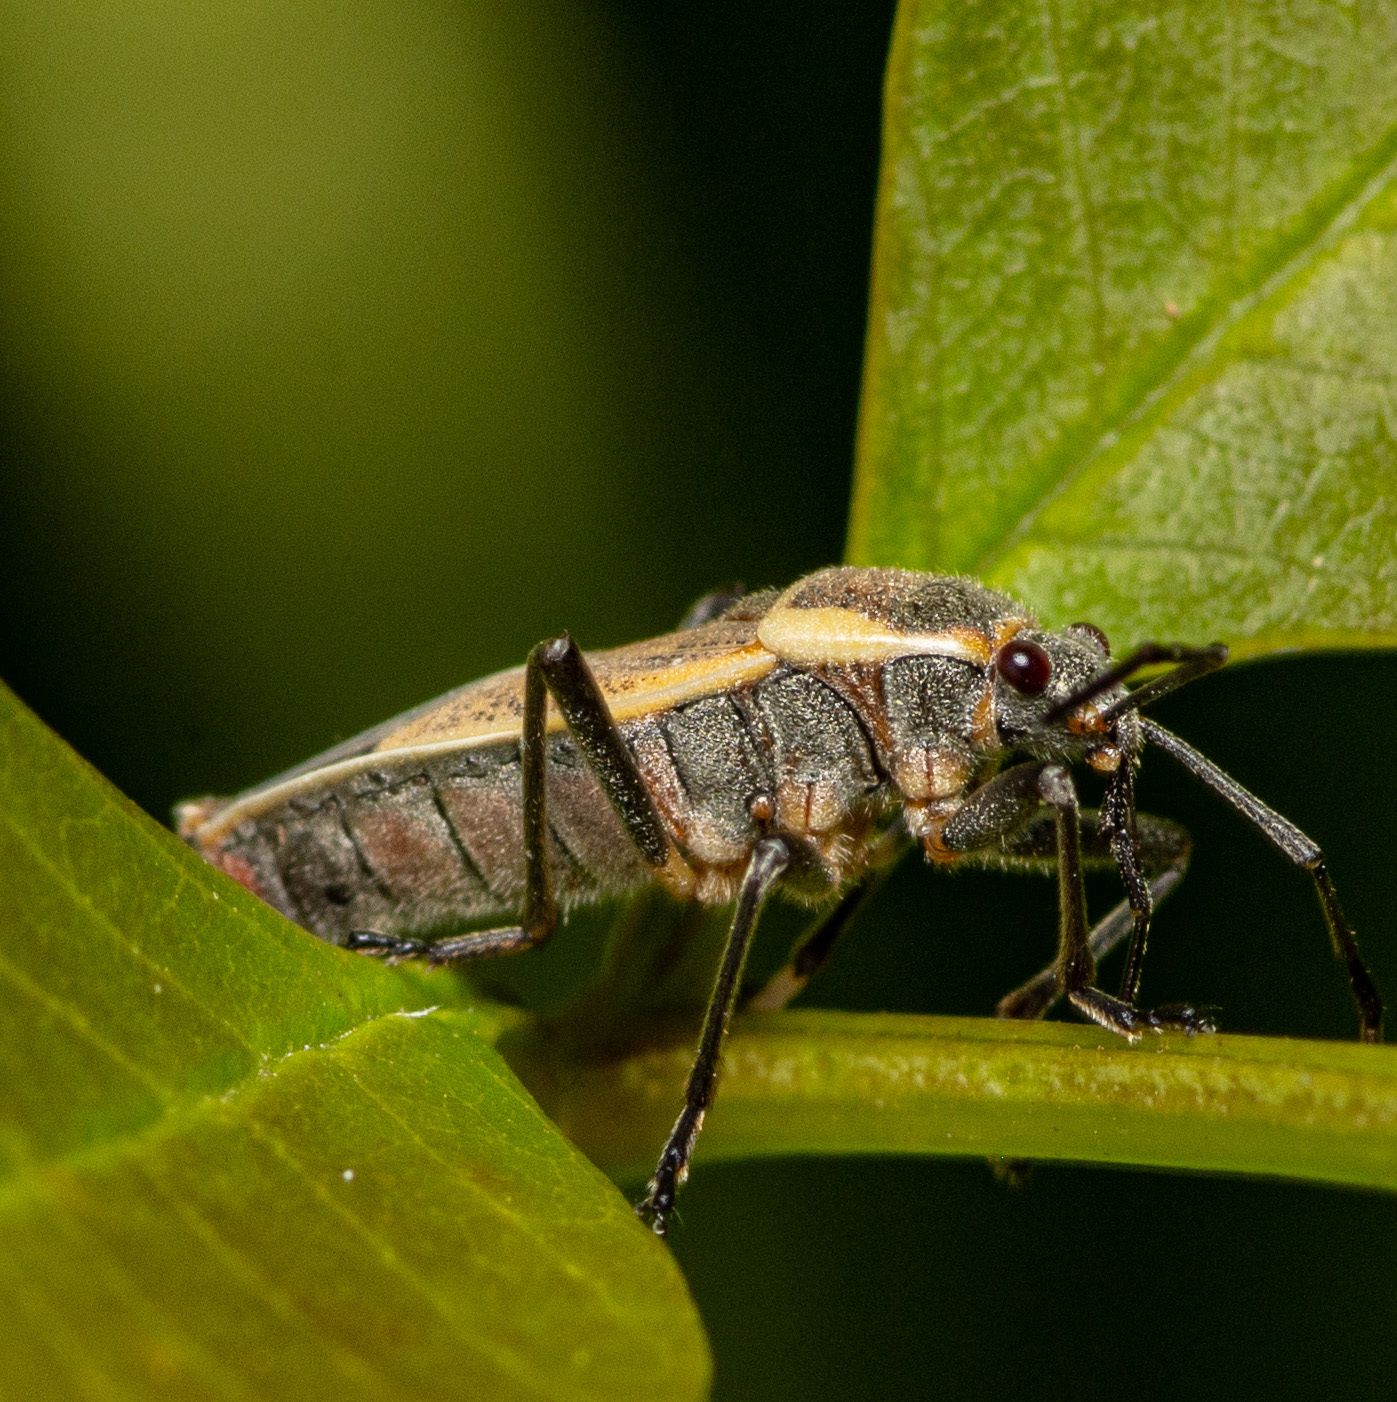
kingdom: Animalia
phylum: Arthropoda
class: Insecta
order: Hemiptera
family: Largidae
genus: Largus
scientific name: Largus maculatus
